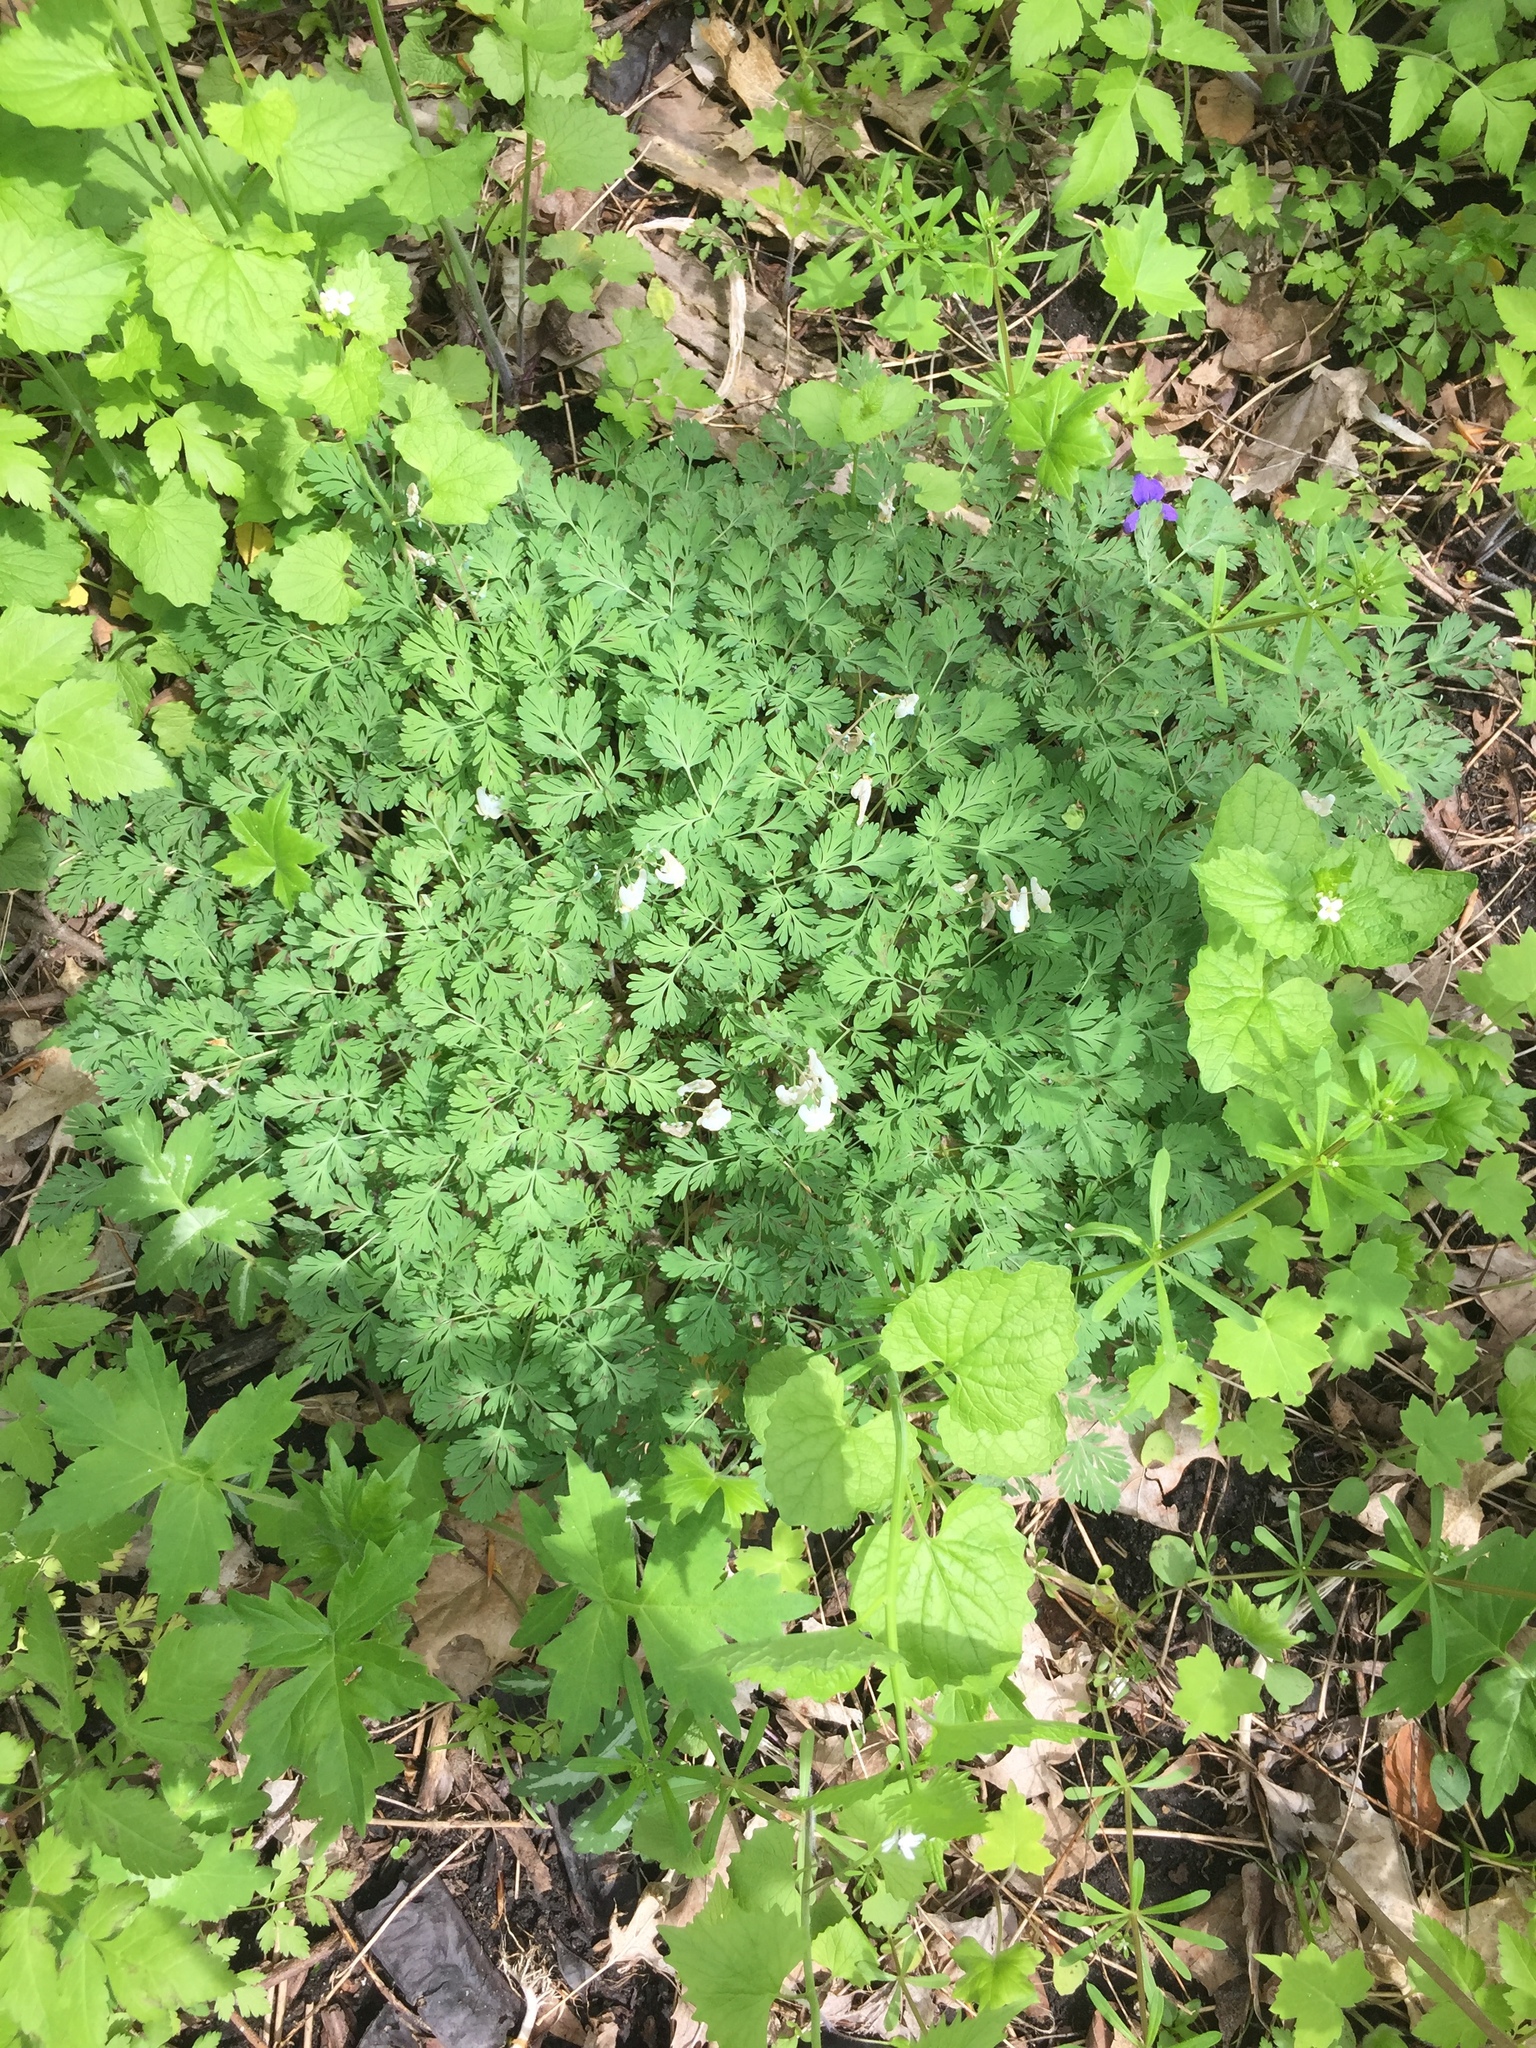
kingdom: Plantae
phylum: Tracheophyta
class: Magnoliopsida
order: Ranunculales
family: Papaveraceae
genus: Dicentra
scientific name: Dicentra cucullaria
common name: Dutchman's breeches
